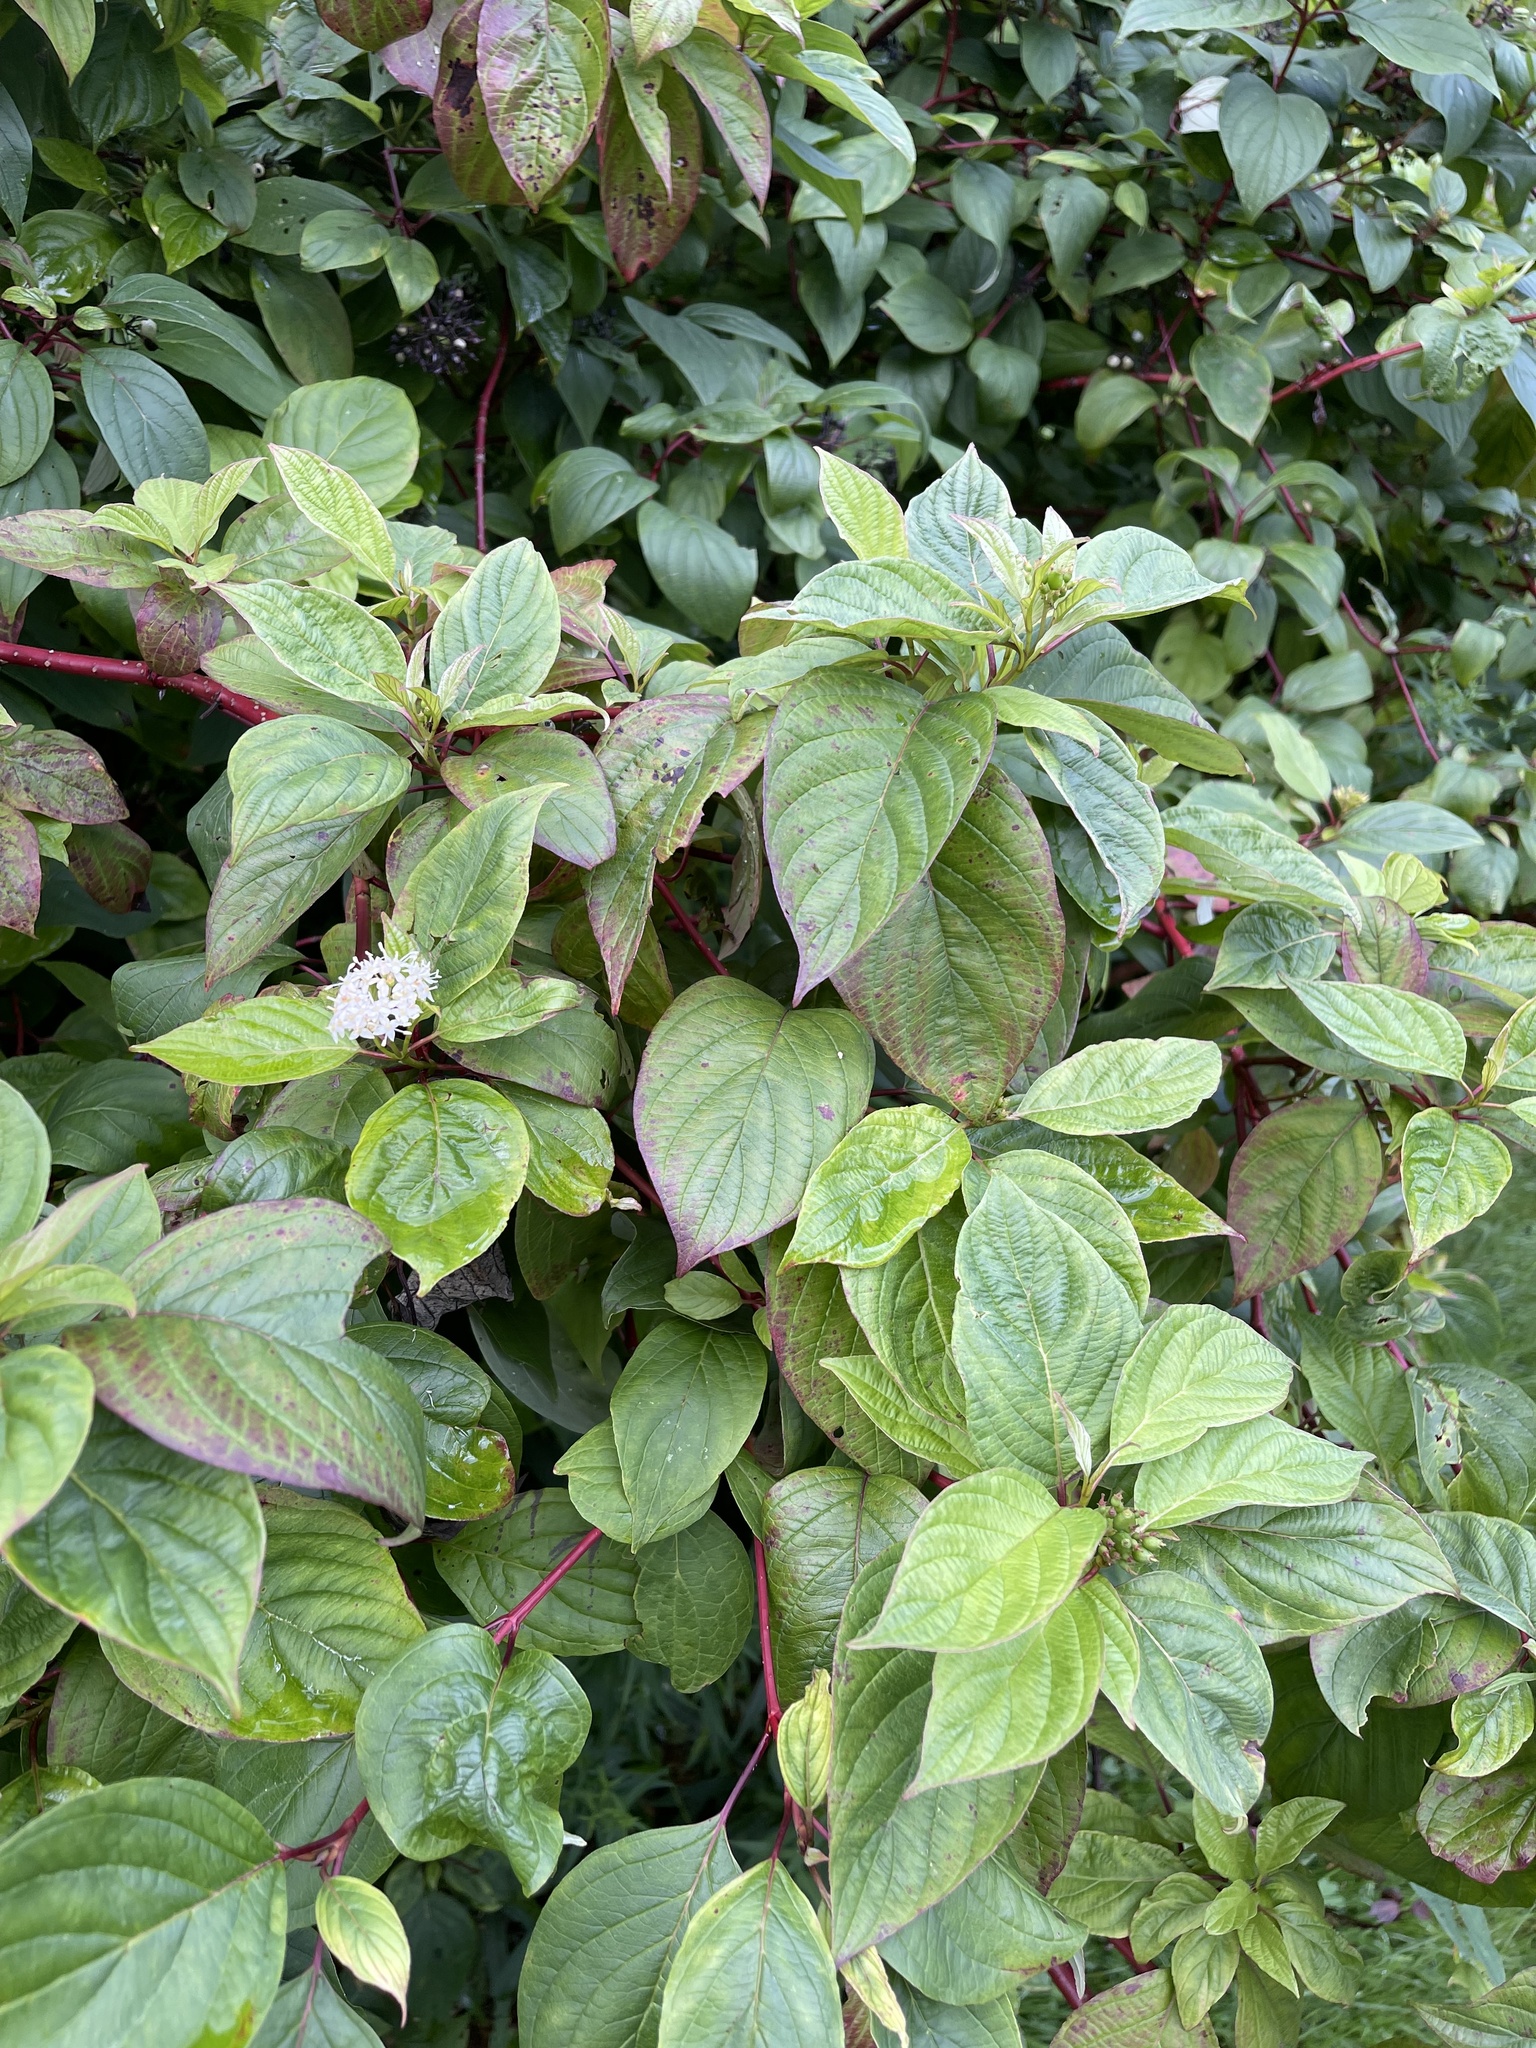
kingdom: Plantae
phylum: Tracheophyta
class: Magnoliopsida
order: Cornales
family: Cornaceae
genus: Cornus
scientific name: Cornus sericea
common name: Red-osier dogwood
